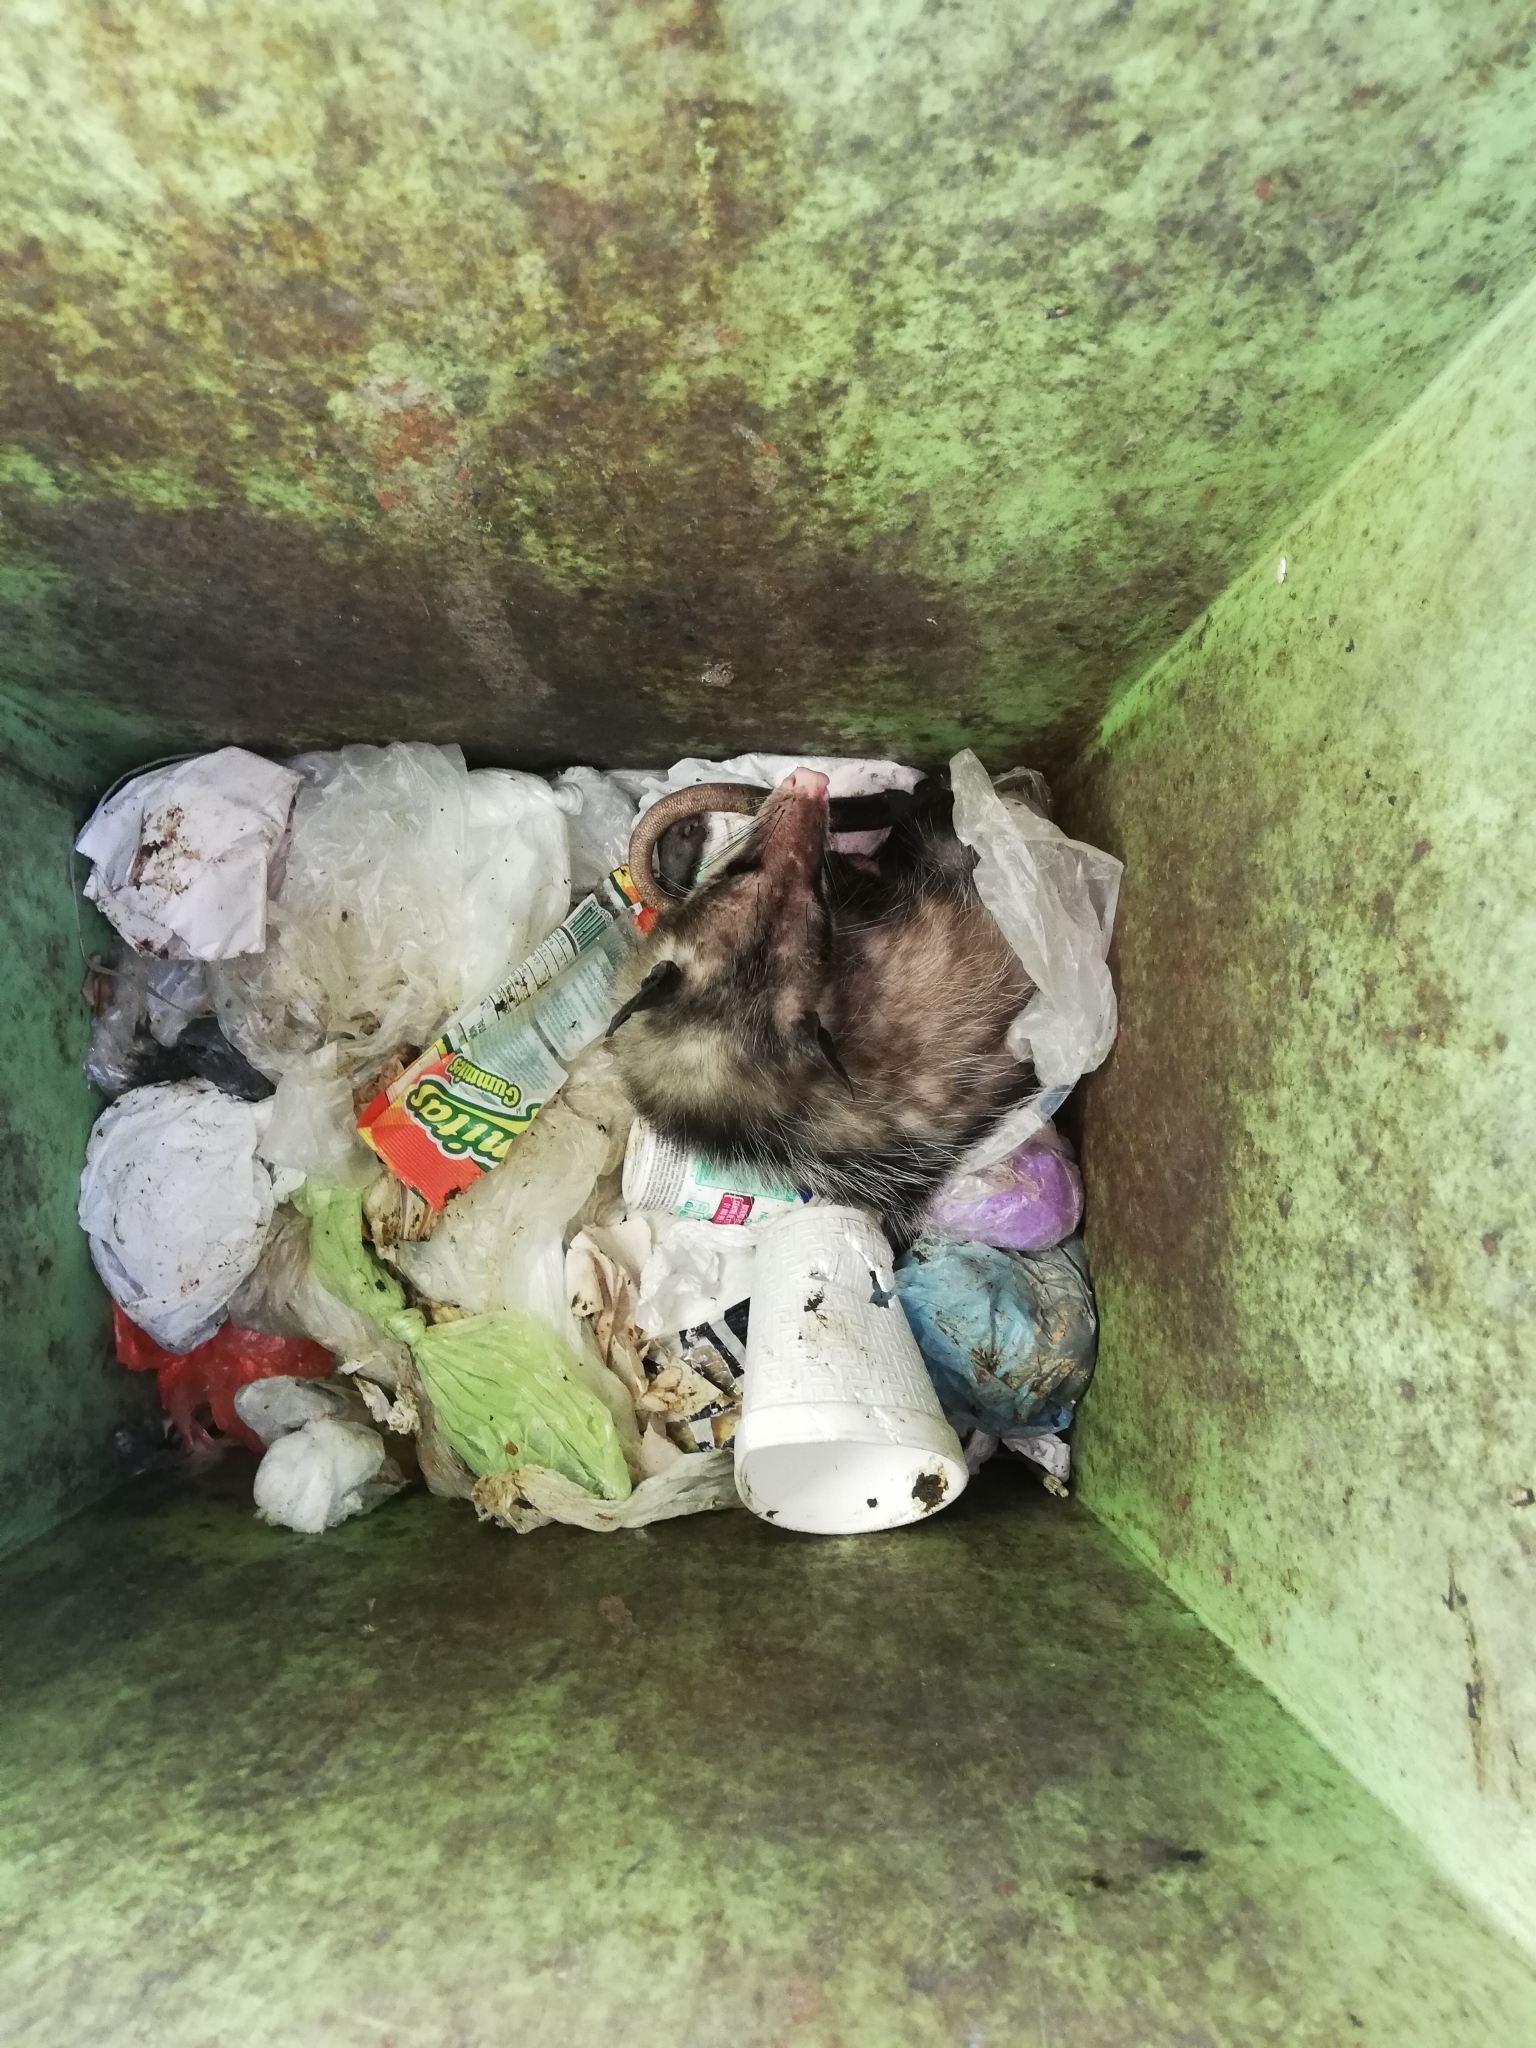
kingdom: Animalia
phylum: Chordata
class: Mammalia
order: Didelphimorphia
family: Didelphidae
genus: Didelphis
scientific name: Didelphis virginiana
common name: Virginia opossum
